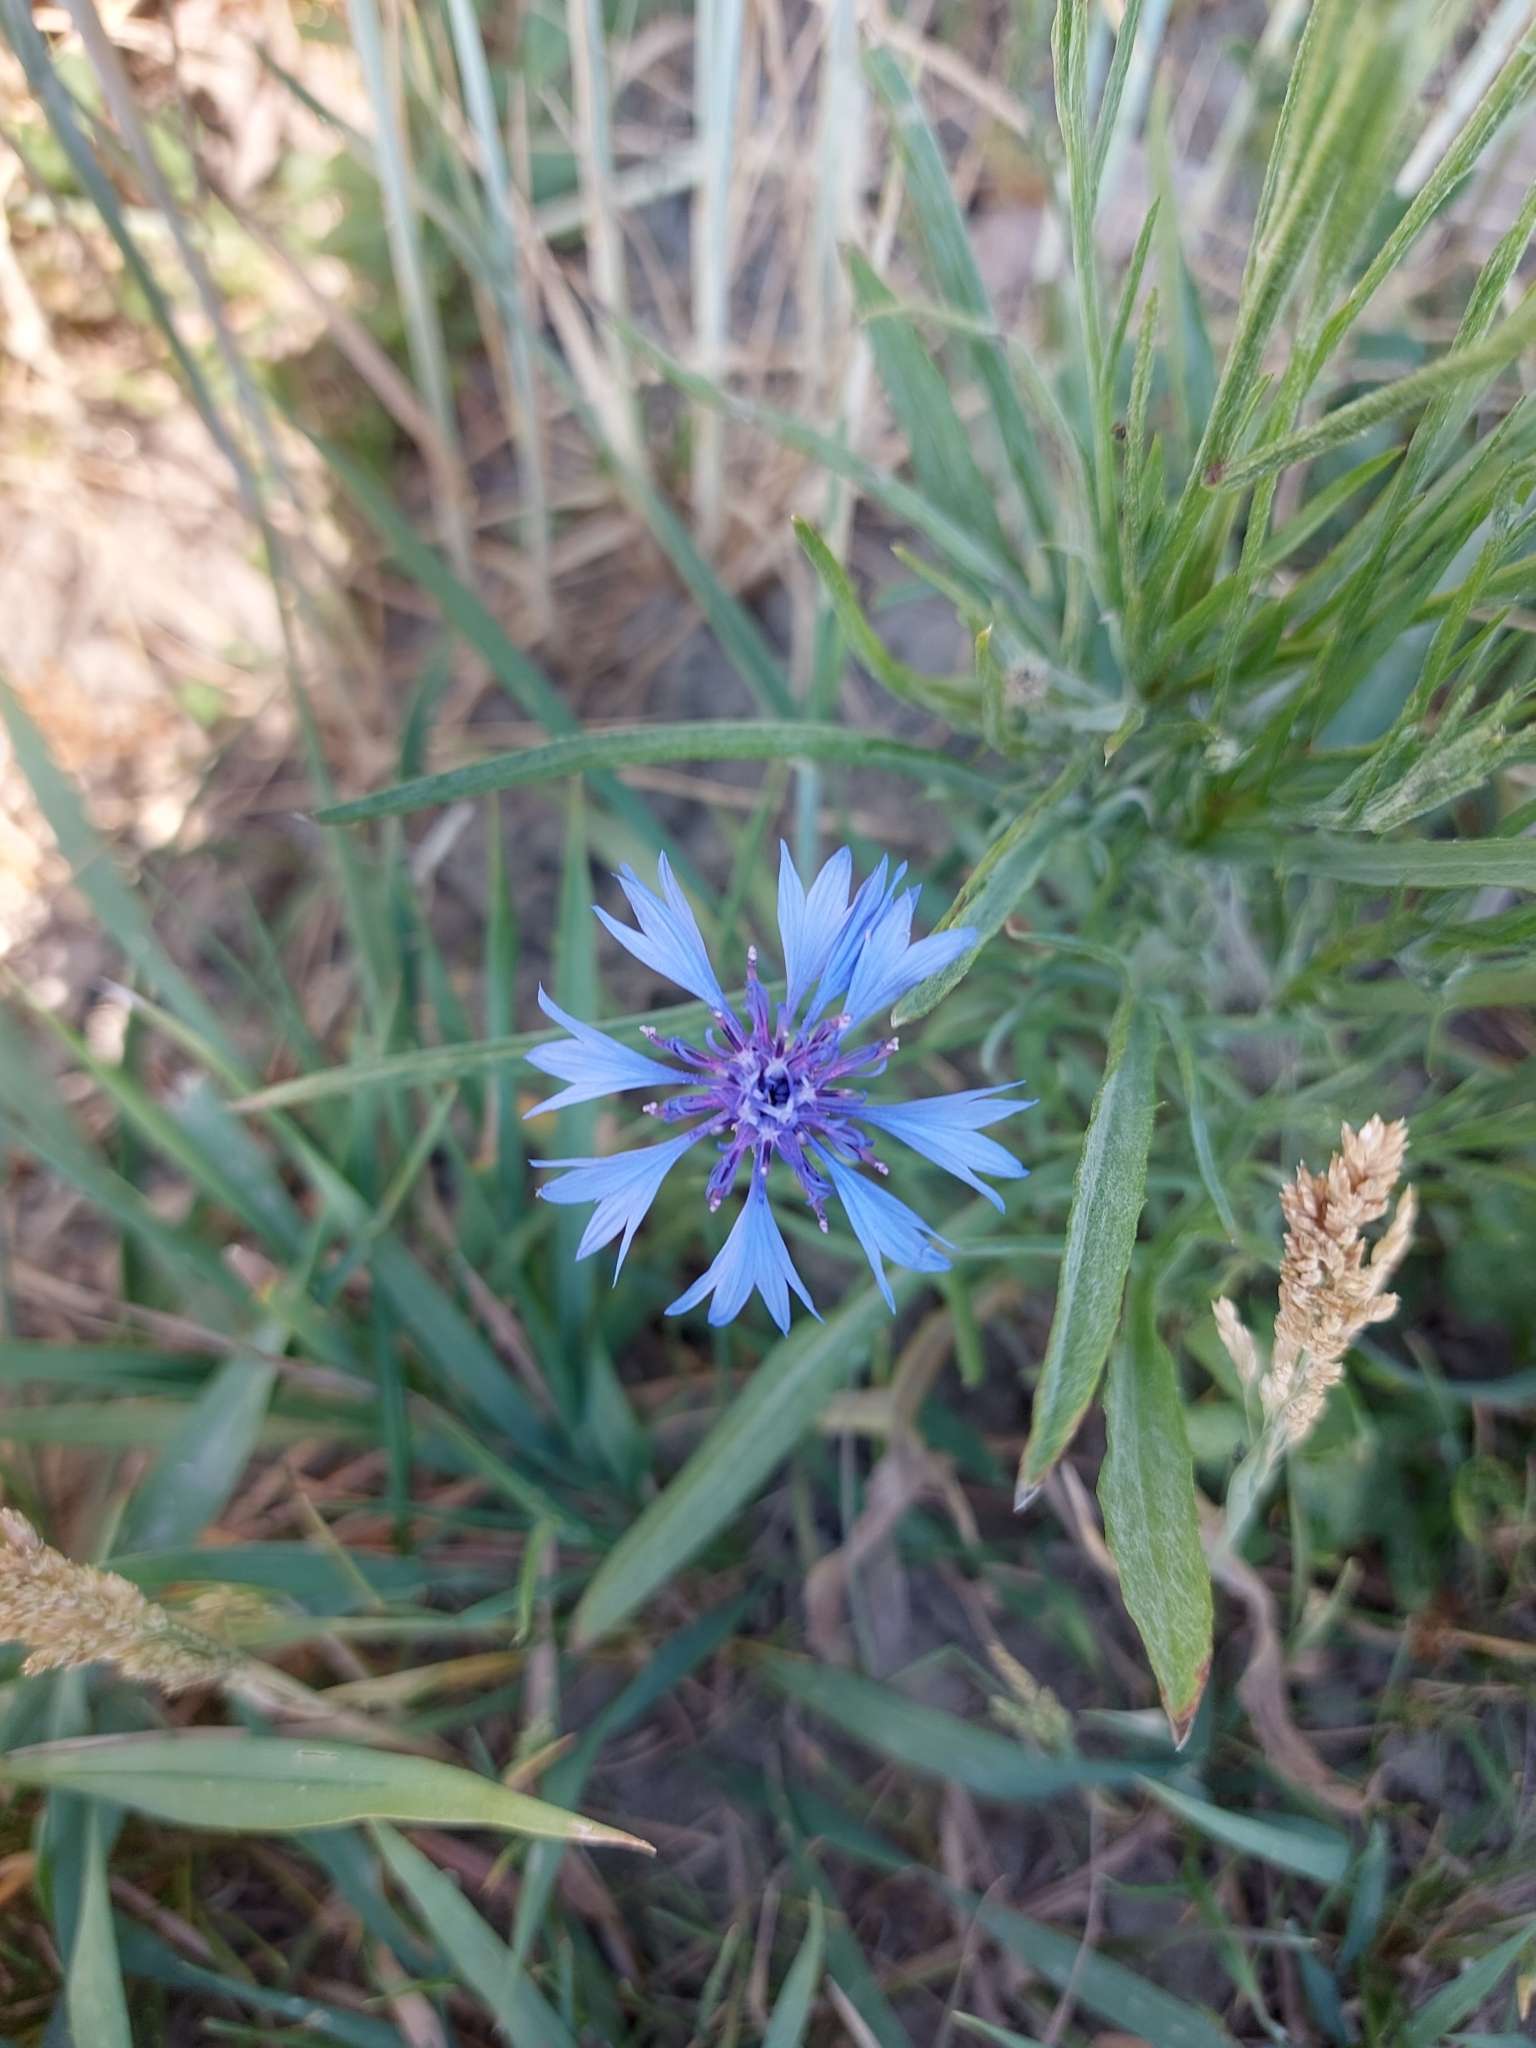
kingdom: Plantae
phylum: Tracheophyta
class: Magnoliopsida
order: Asterales
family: Asteraceae
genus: Centaurea
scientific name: Centaurea cyanus
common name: Cornflower
